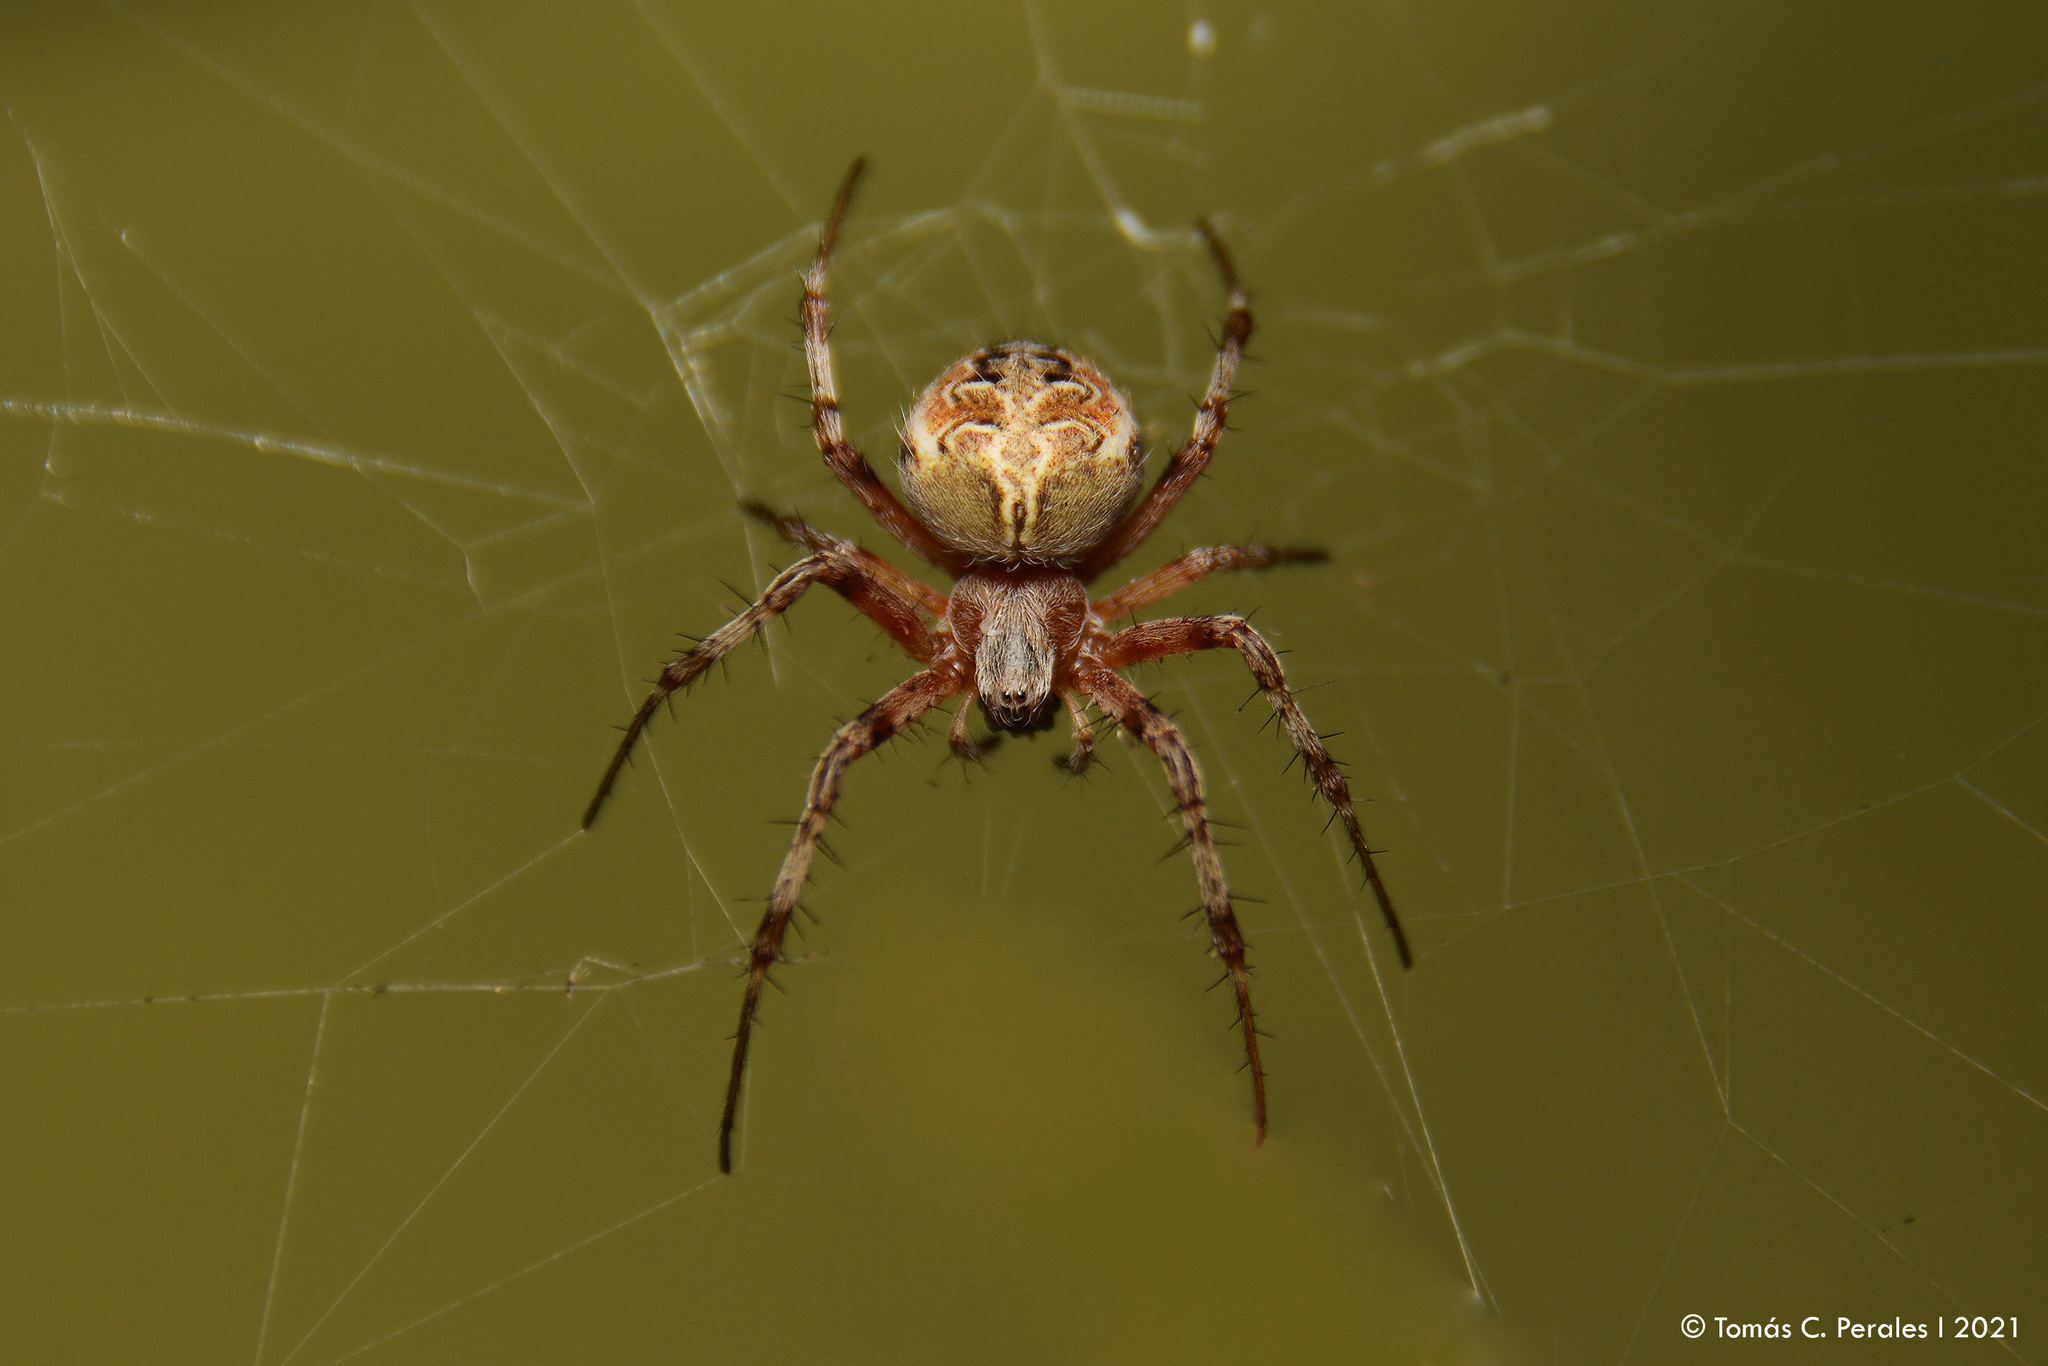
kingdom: Animalia
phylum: Arthropoda
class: Arachnida
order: Araneae
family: Araneidae
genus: Metepeira
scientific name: Metepeira
